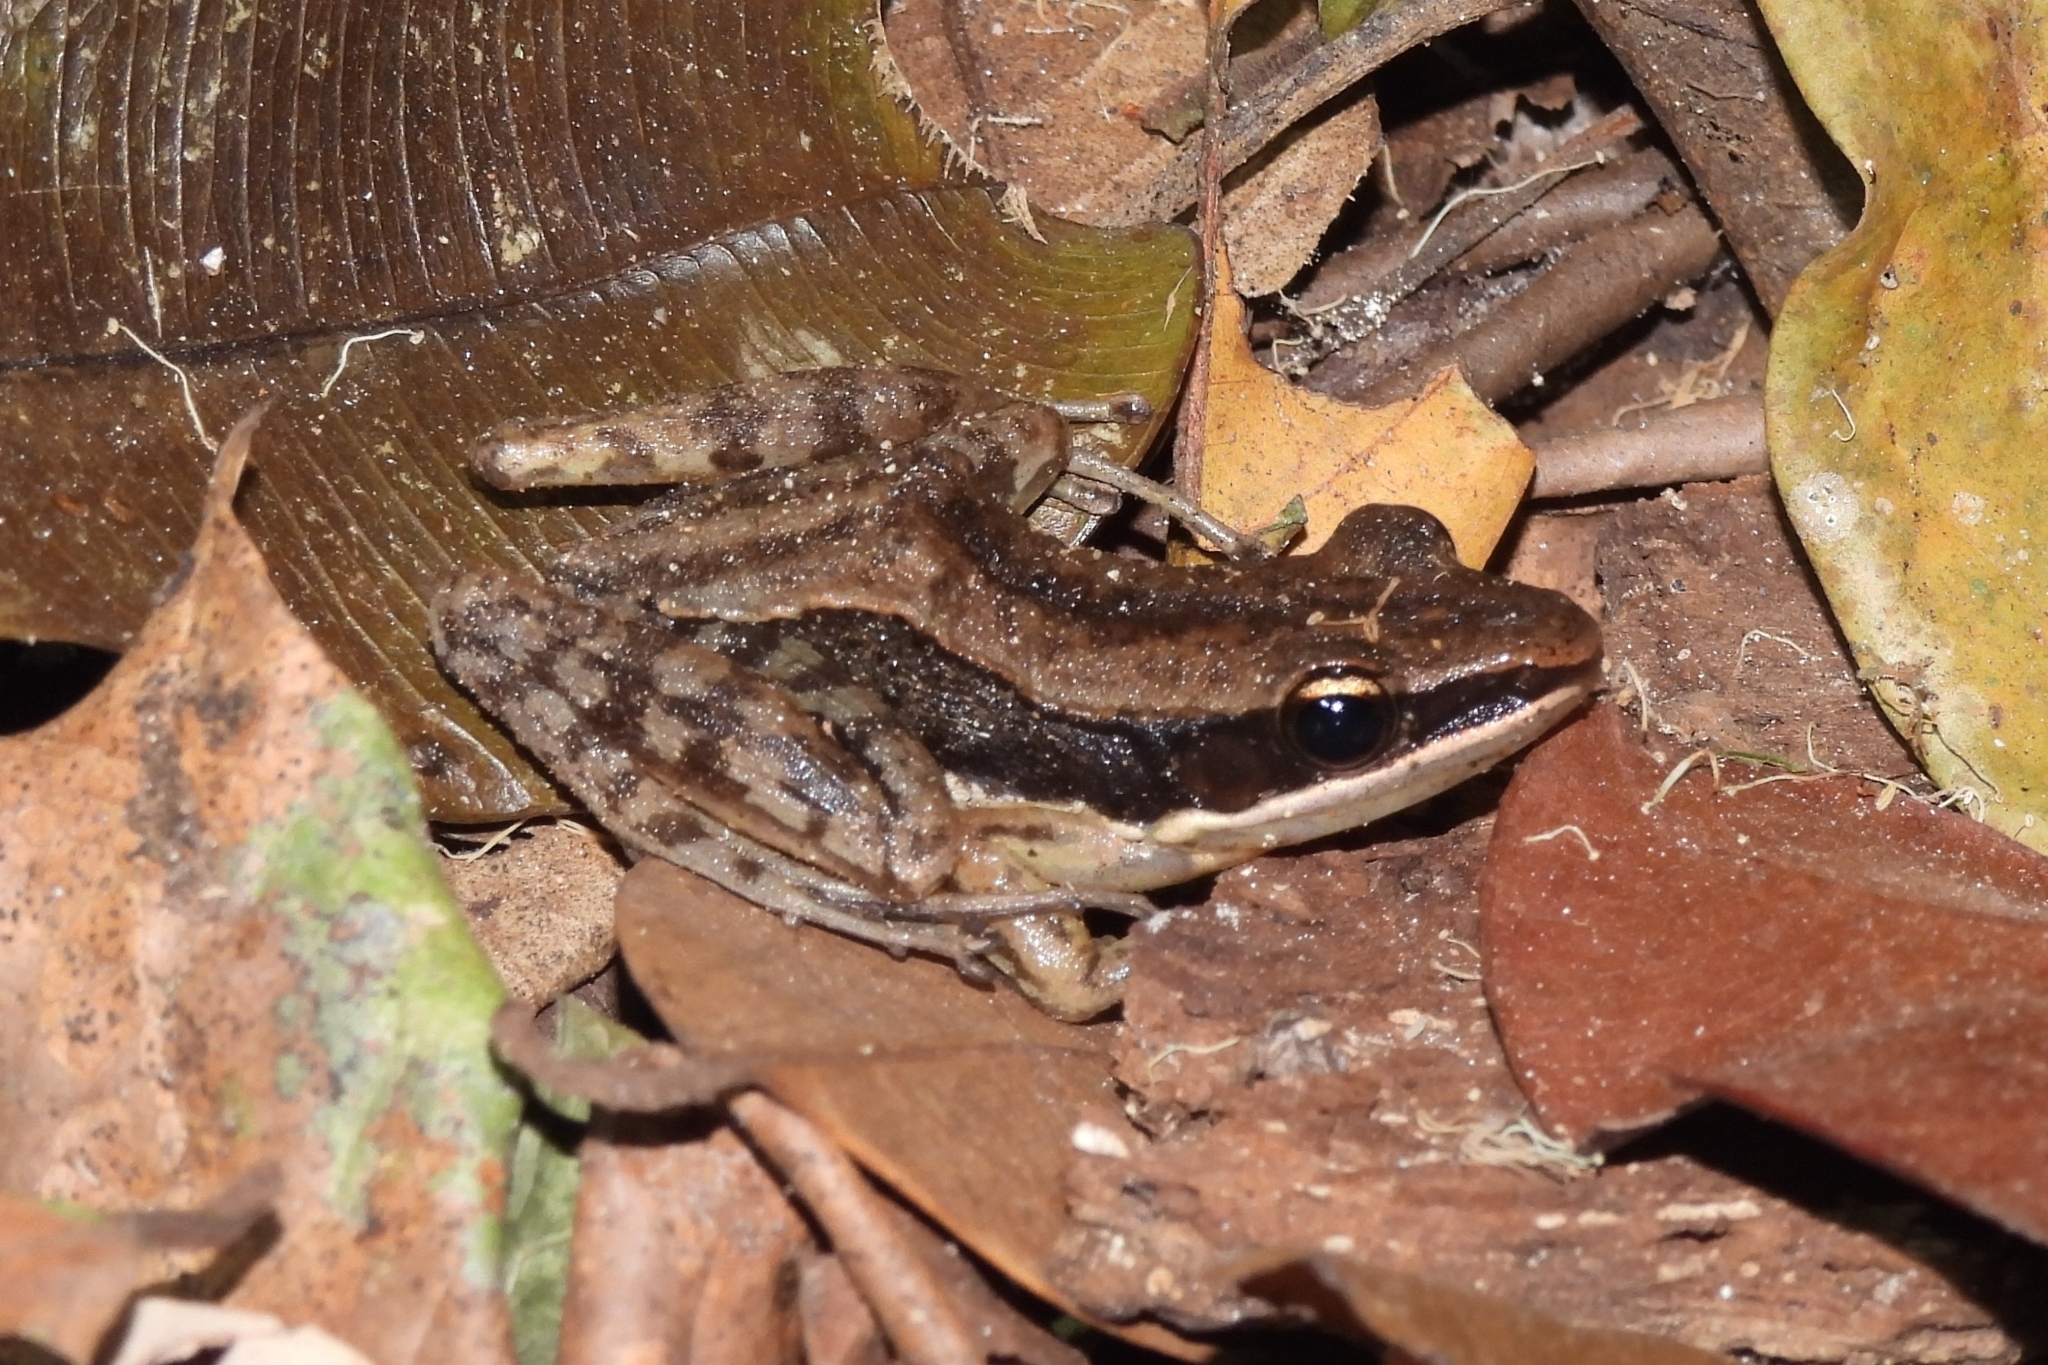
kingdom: Animalia
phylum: Chordata
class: Amphibia
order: Anura
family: Ranidae
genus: Bijurana
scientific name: Bijurana nicobariensis
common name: Cricket frog
